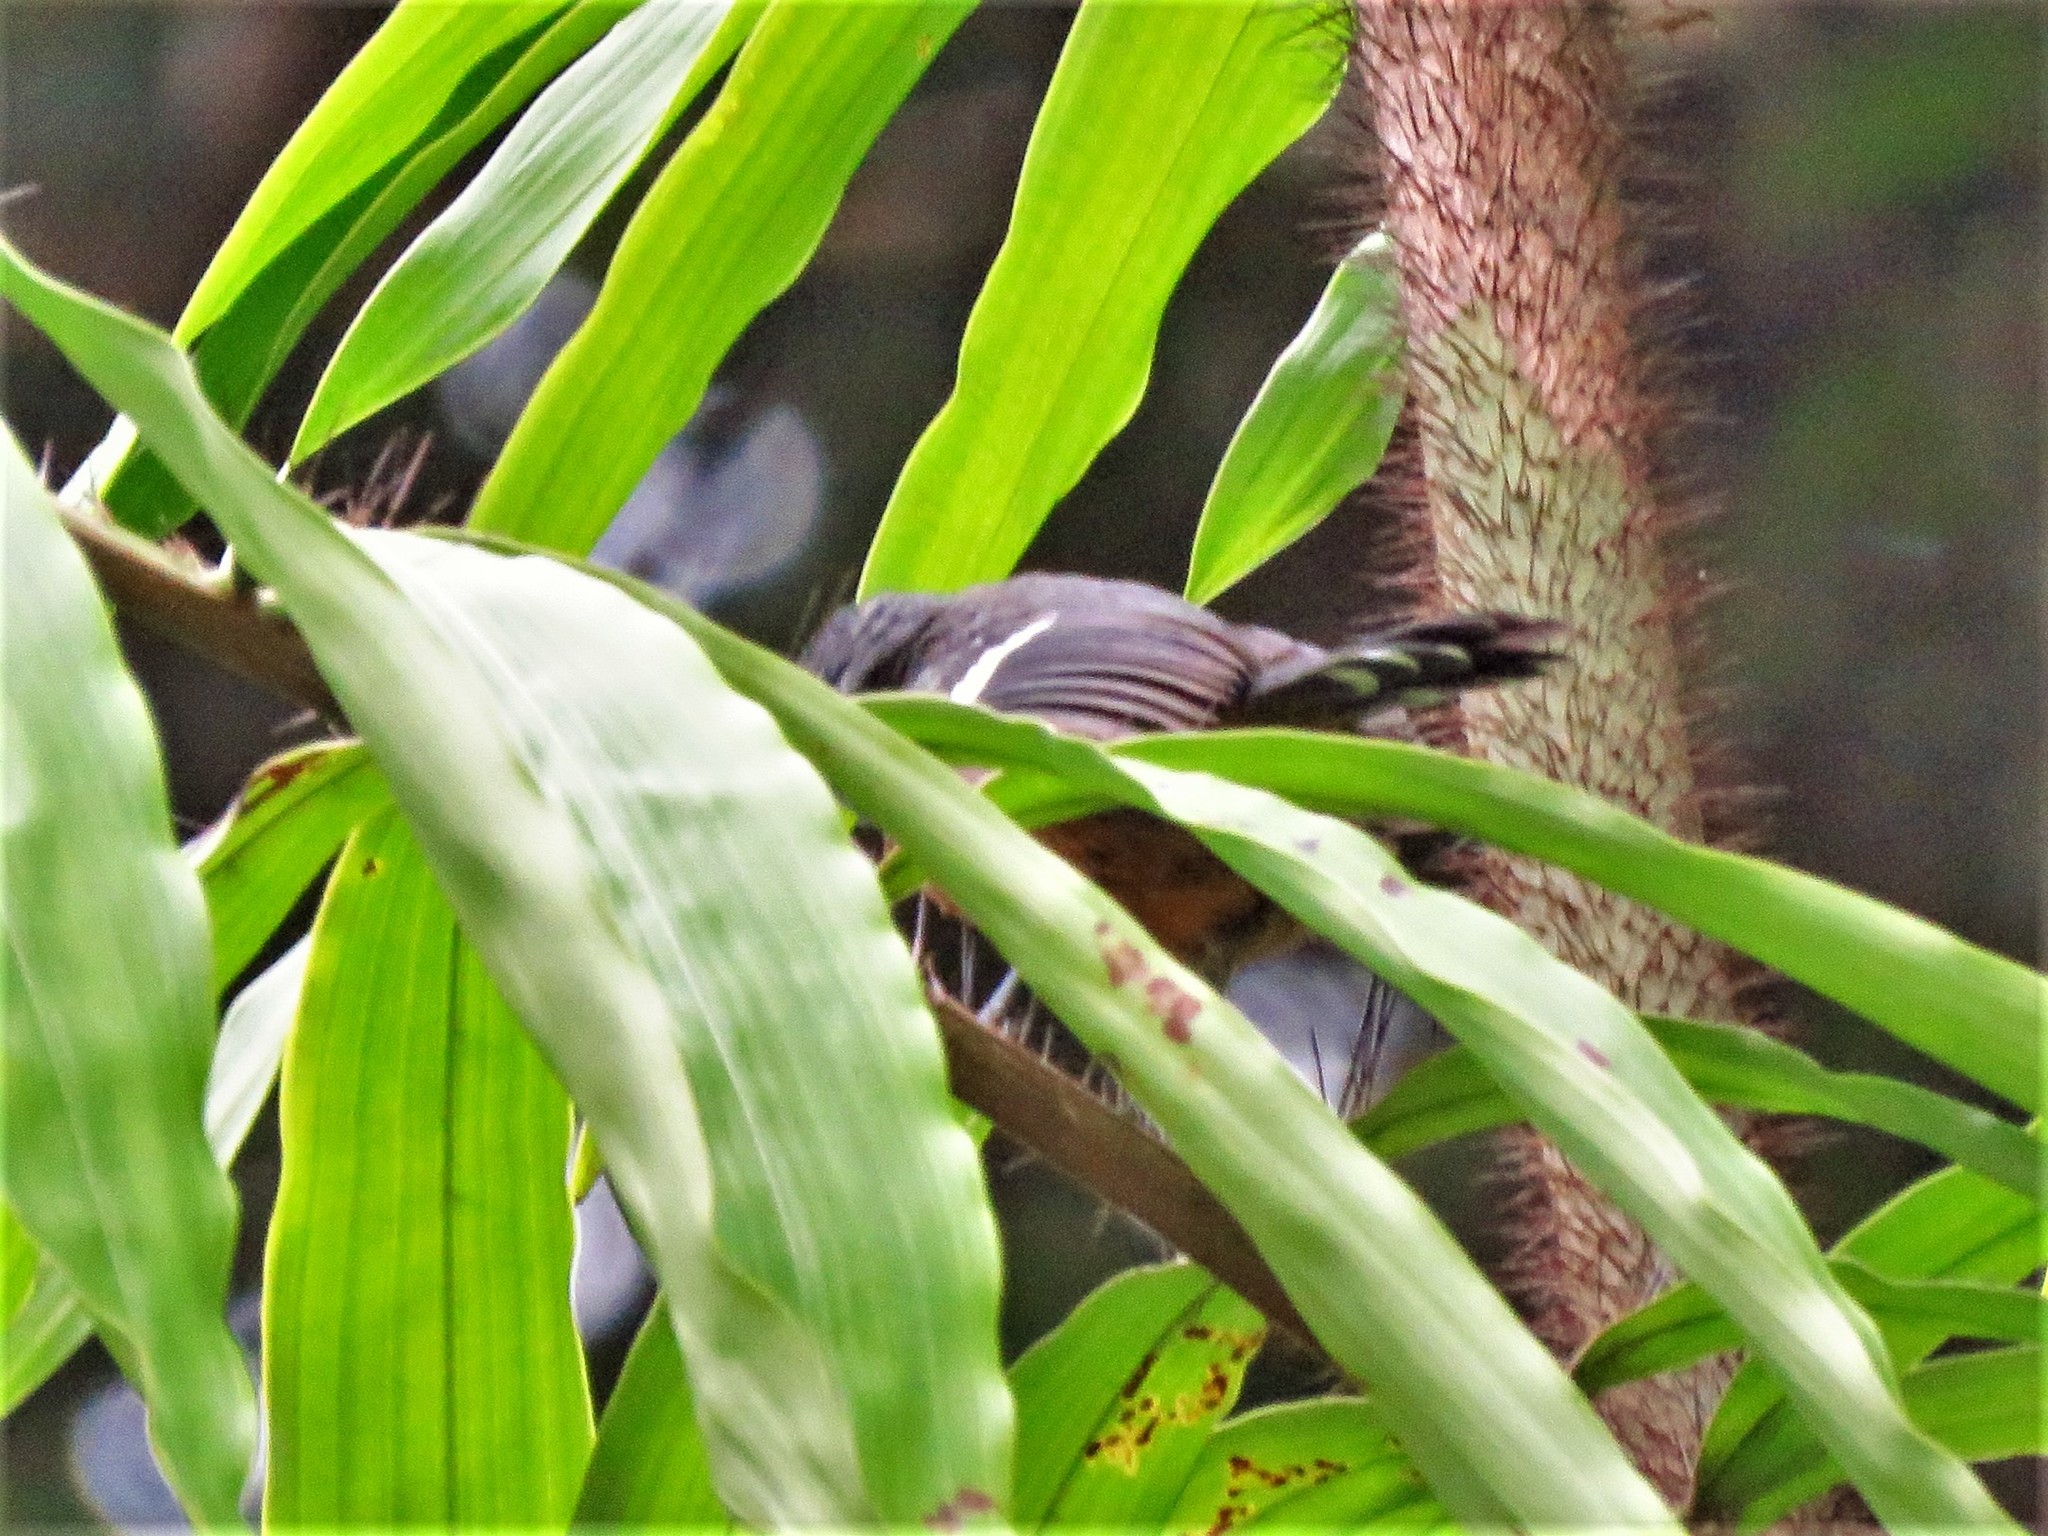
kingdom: Animalia
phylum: Chordata
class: Aves
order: Passeriformes
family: Thamnophilidae
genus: Microrhopias
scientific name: Microrhopias quixensis
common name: Dot-winged antwren
